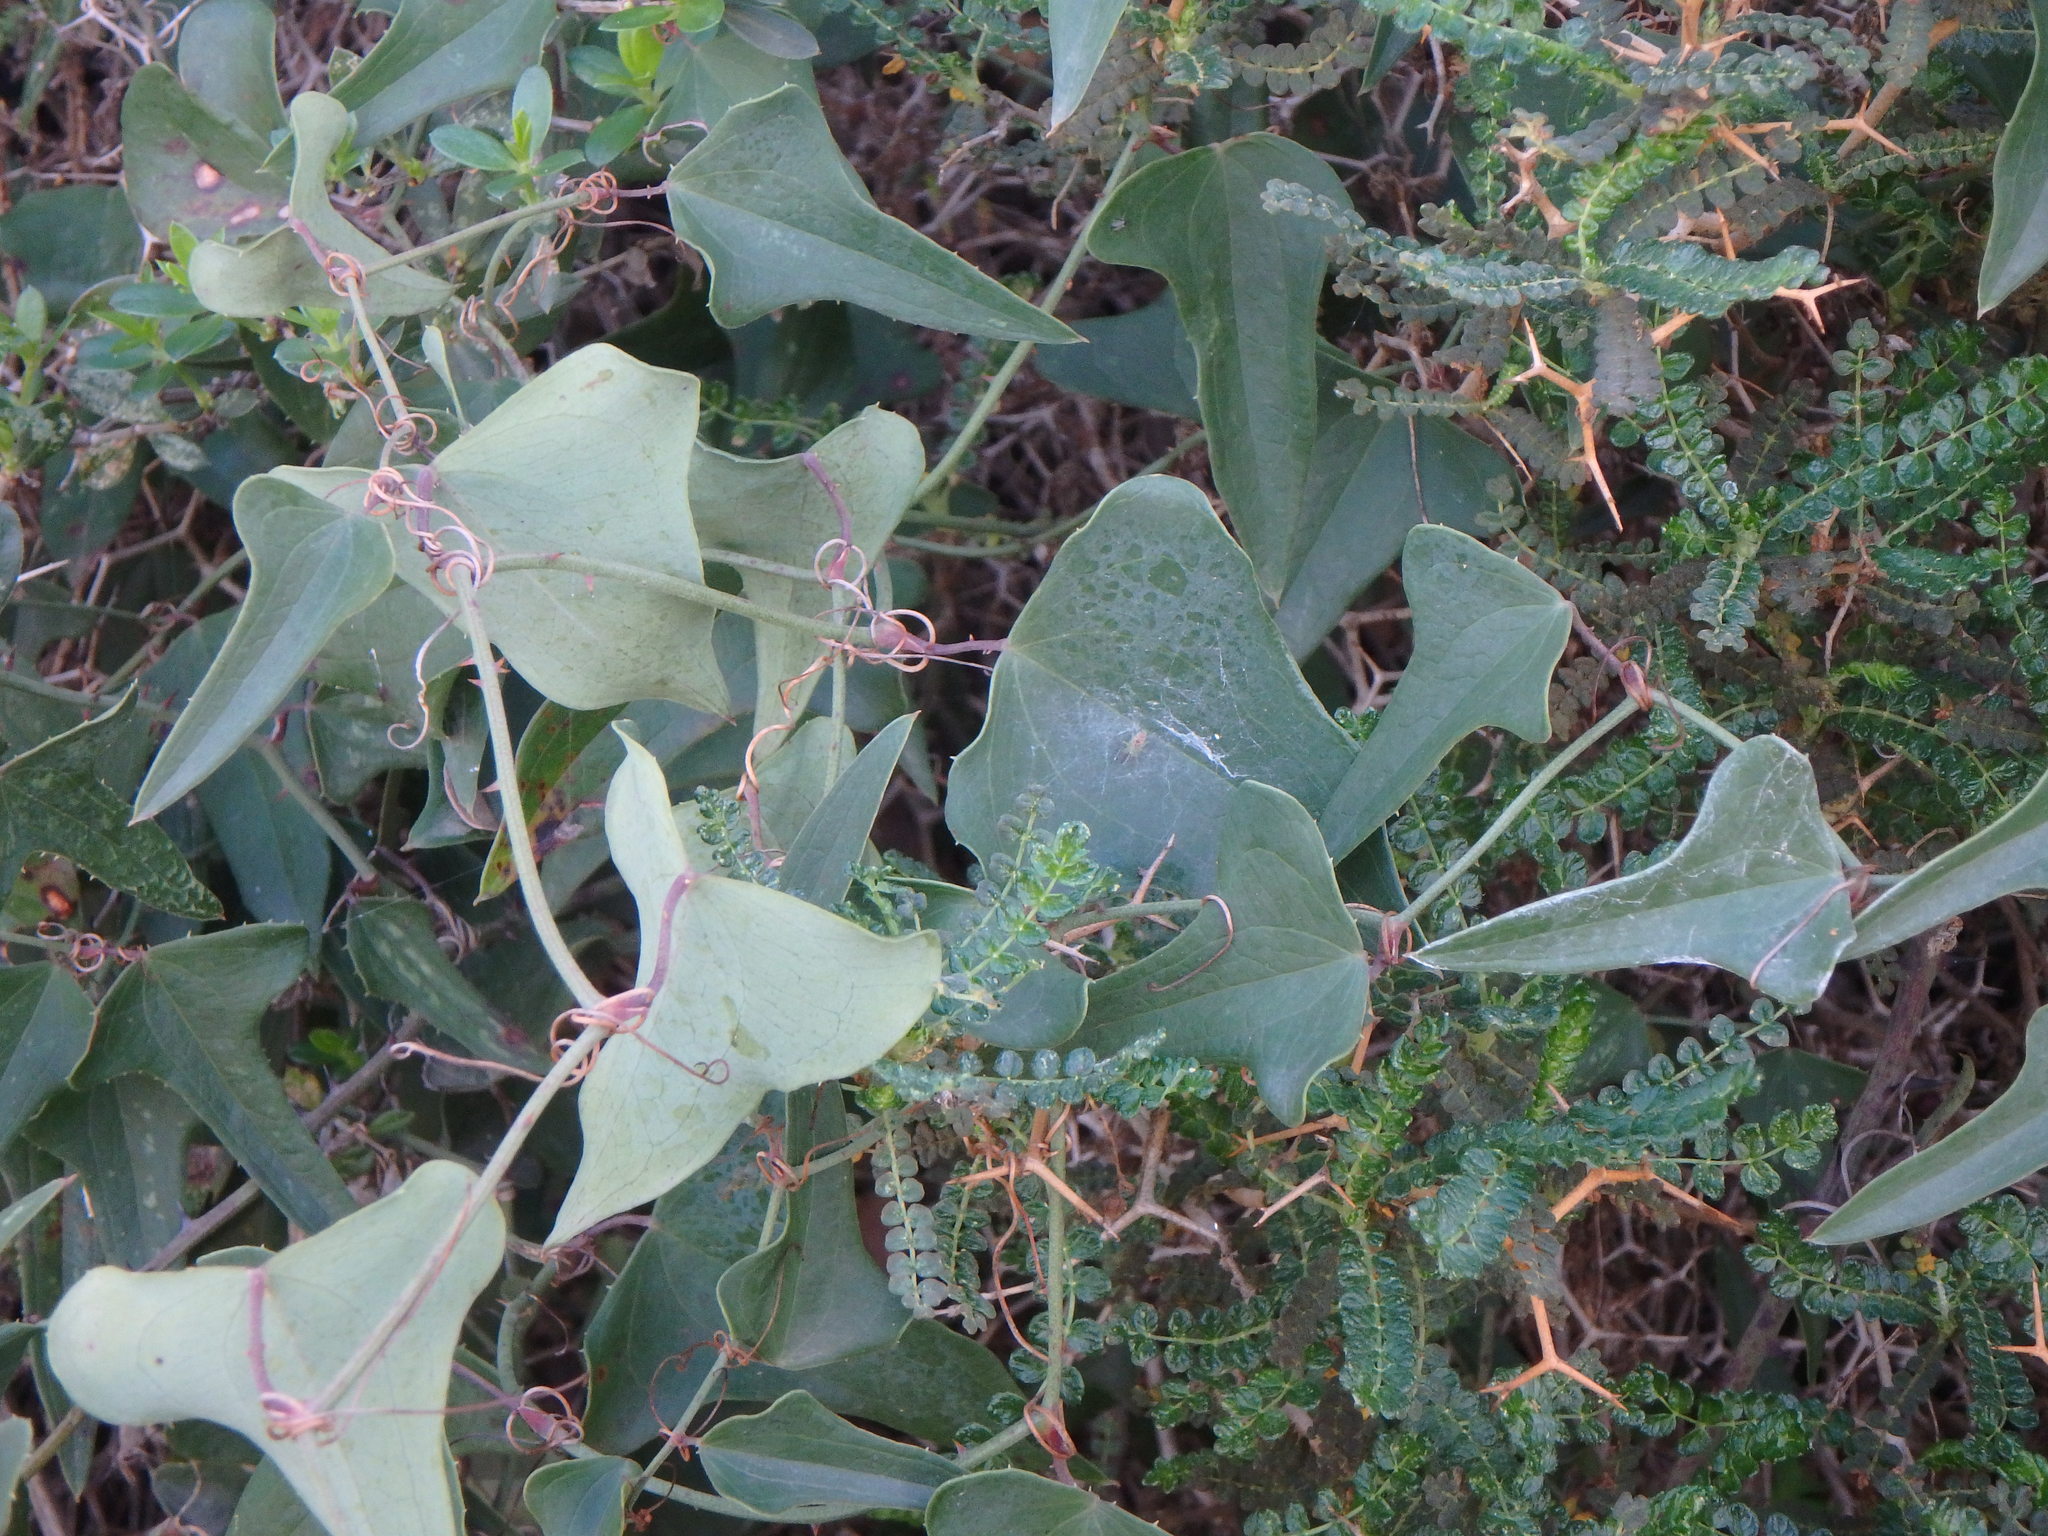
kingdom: Plantae
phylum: Tracheophyta
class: Liliopsida
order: Liliales
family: Smilacaceae
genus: Smilax
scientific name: Smilax aspera
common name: Common smilax
